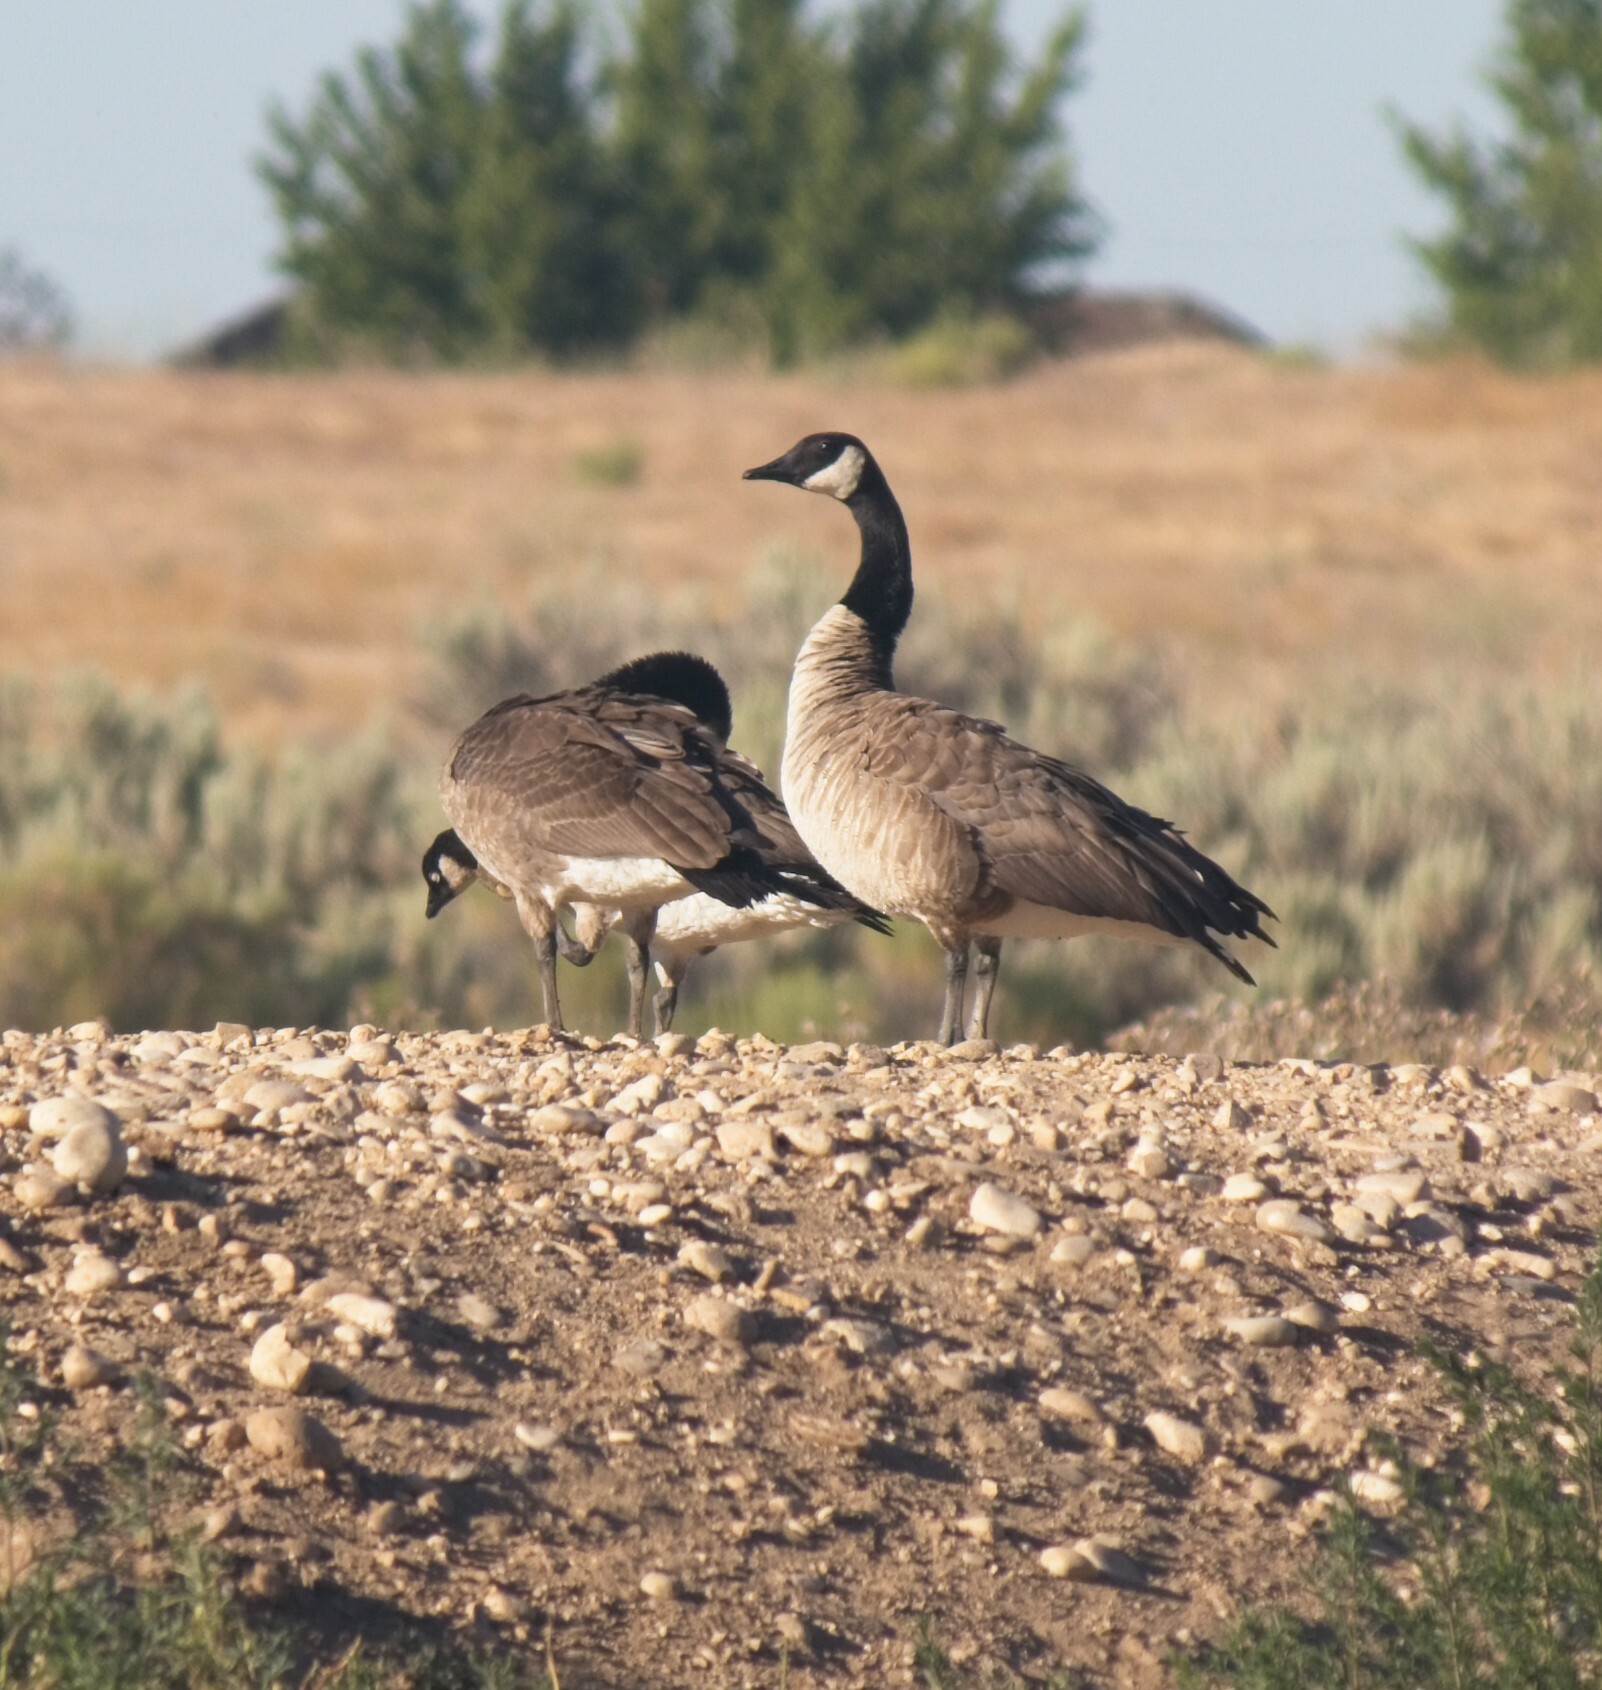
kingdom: Animalia
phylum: Chordata
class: Aves
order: Anseriformes
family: Anatidae
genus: Branta
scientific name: Branta canadensis
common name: Canada goose
